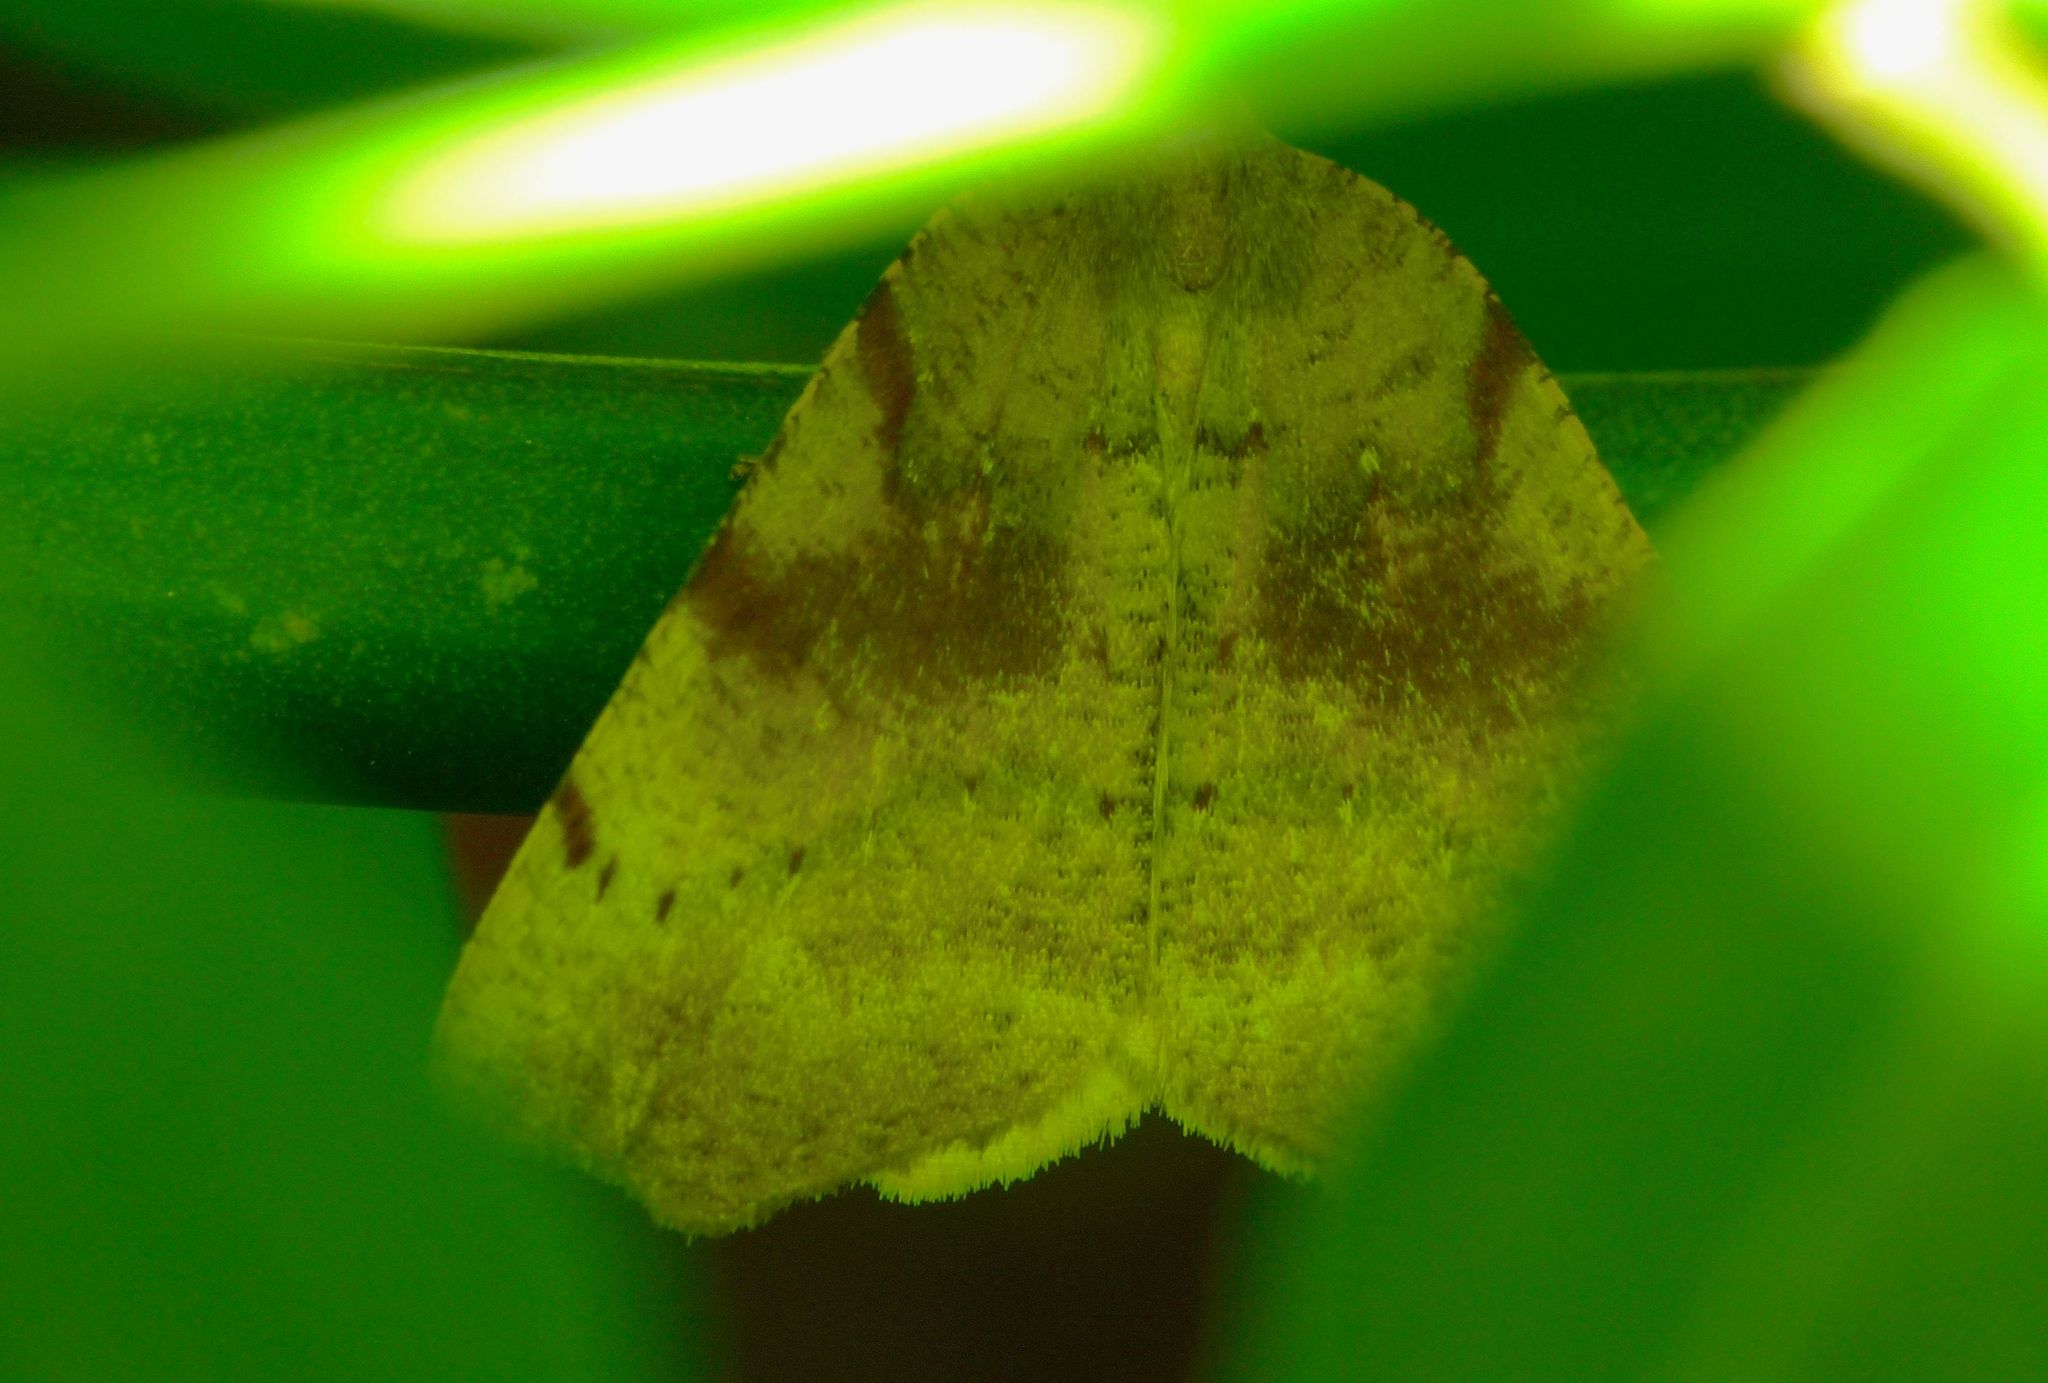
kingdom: Animalia
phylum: Arthropoda
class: Insecta
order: Lepidoptera
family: Geometridae
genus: Sestra
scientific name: Sestra flexata
